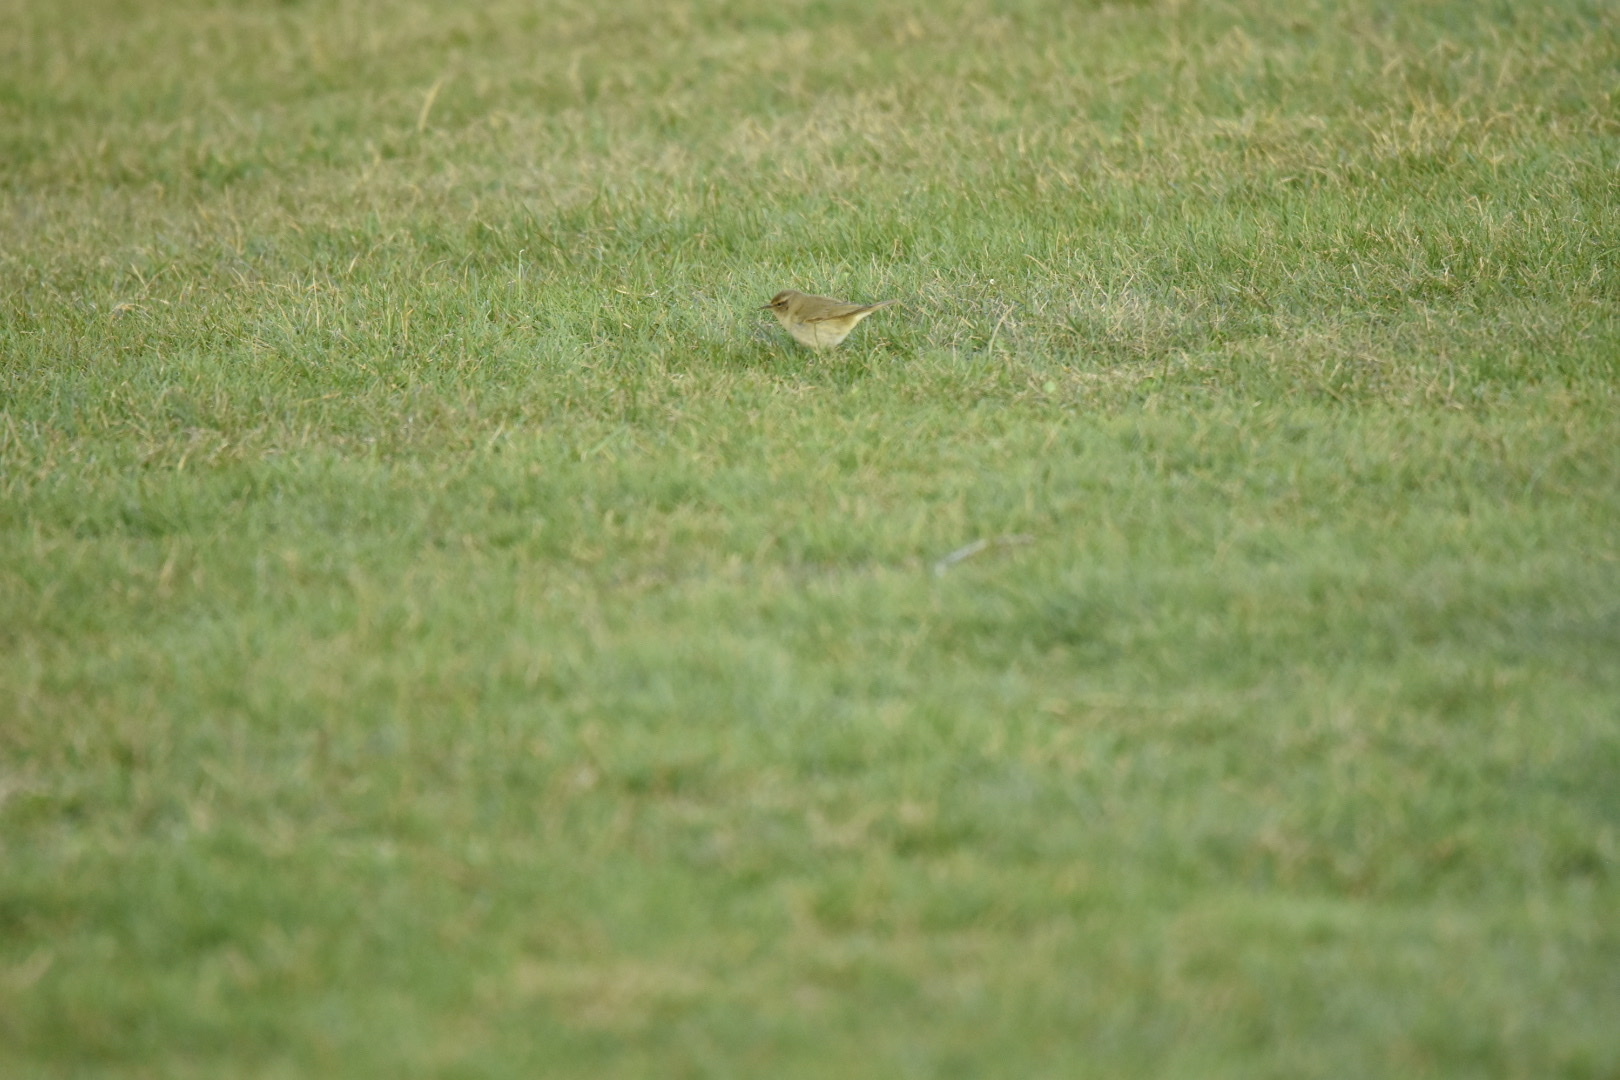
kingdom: Animalia
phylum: Chordata
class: Aves
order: Passeriformes
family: Motacillidae
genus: Anthus
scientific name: Anthus pratensis
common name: Meadow pipit
